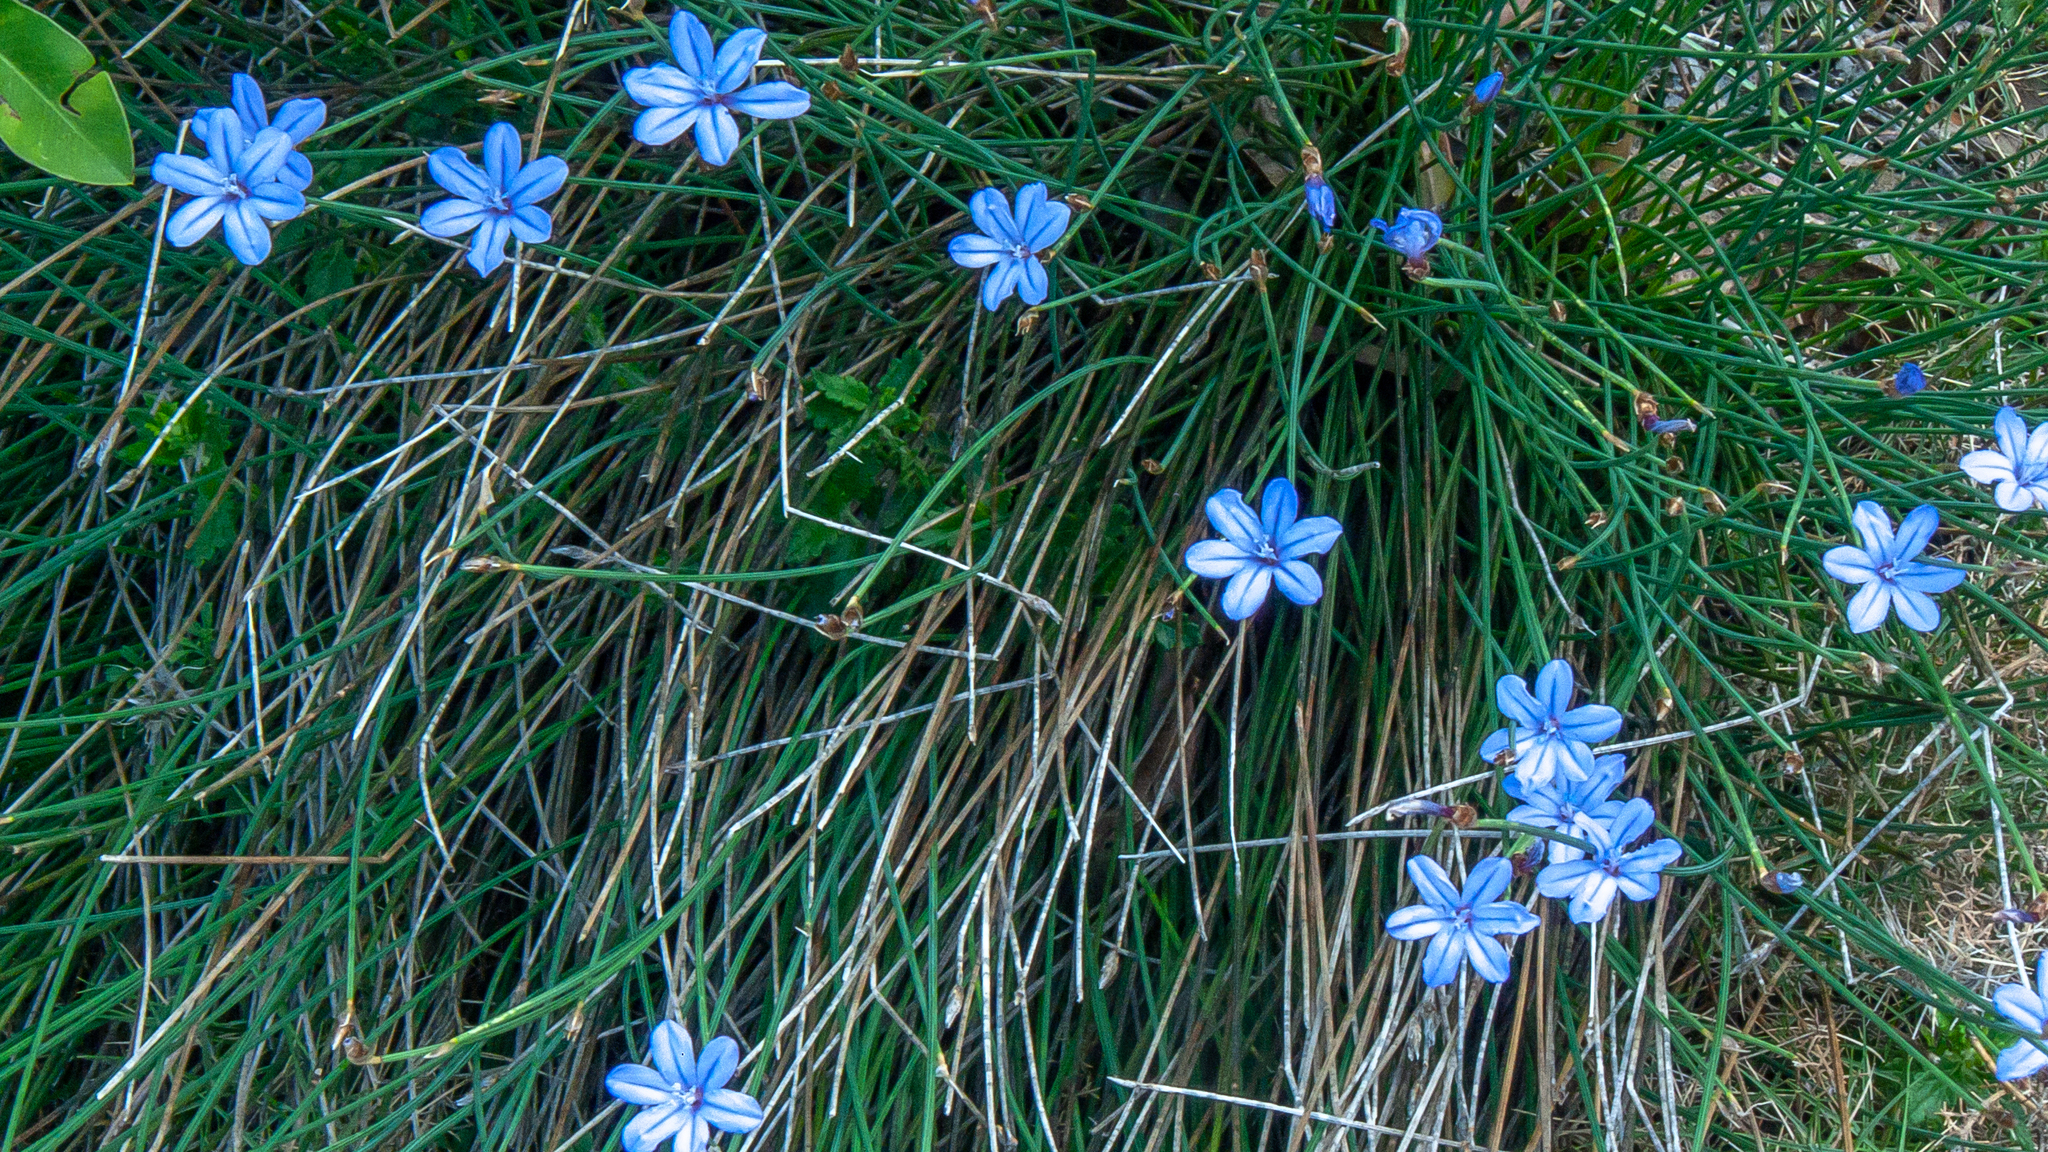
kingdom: Plantae
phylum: Tracheophyta
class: Liliopsida
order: Asparagales
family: Asparagaceae
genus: Aphyllanthes
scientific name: Aphyllanthes monspeliensis
